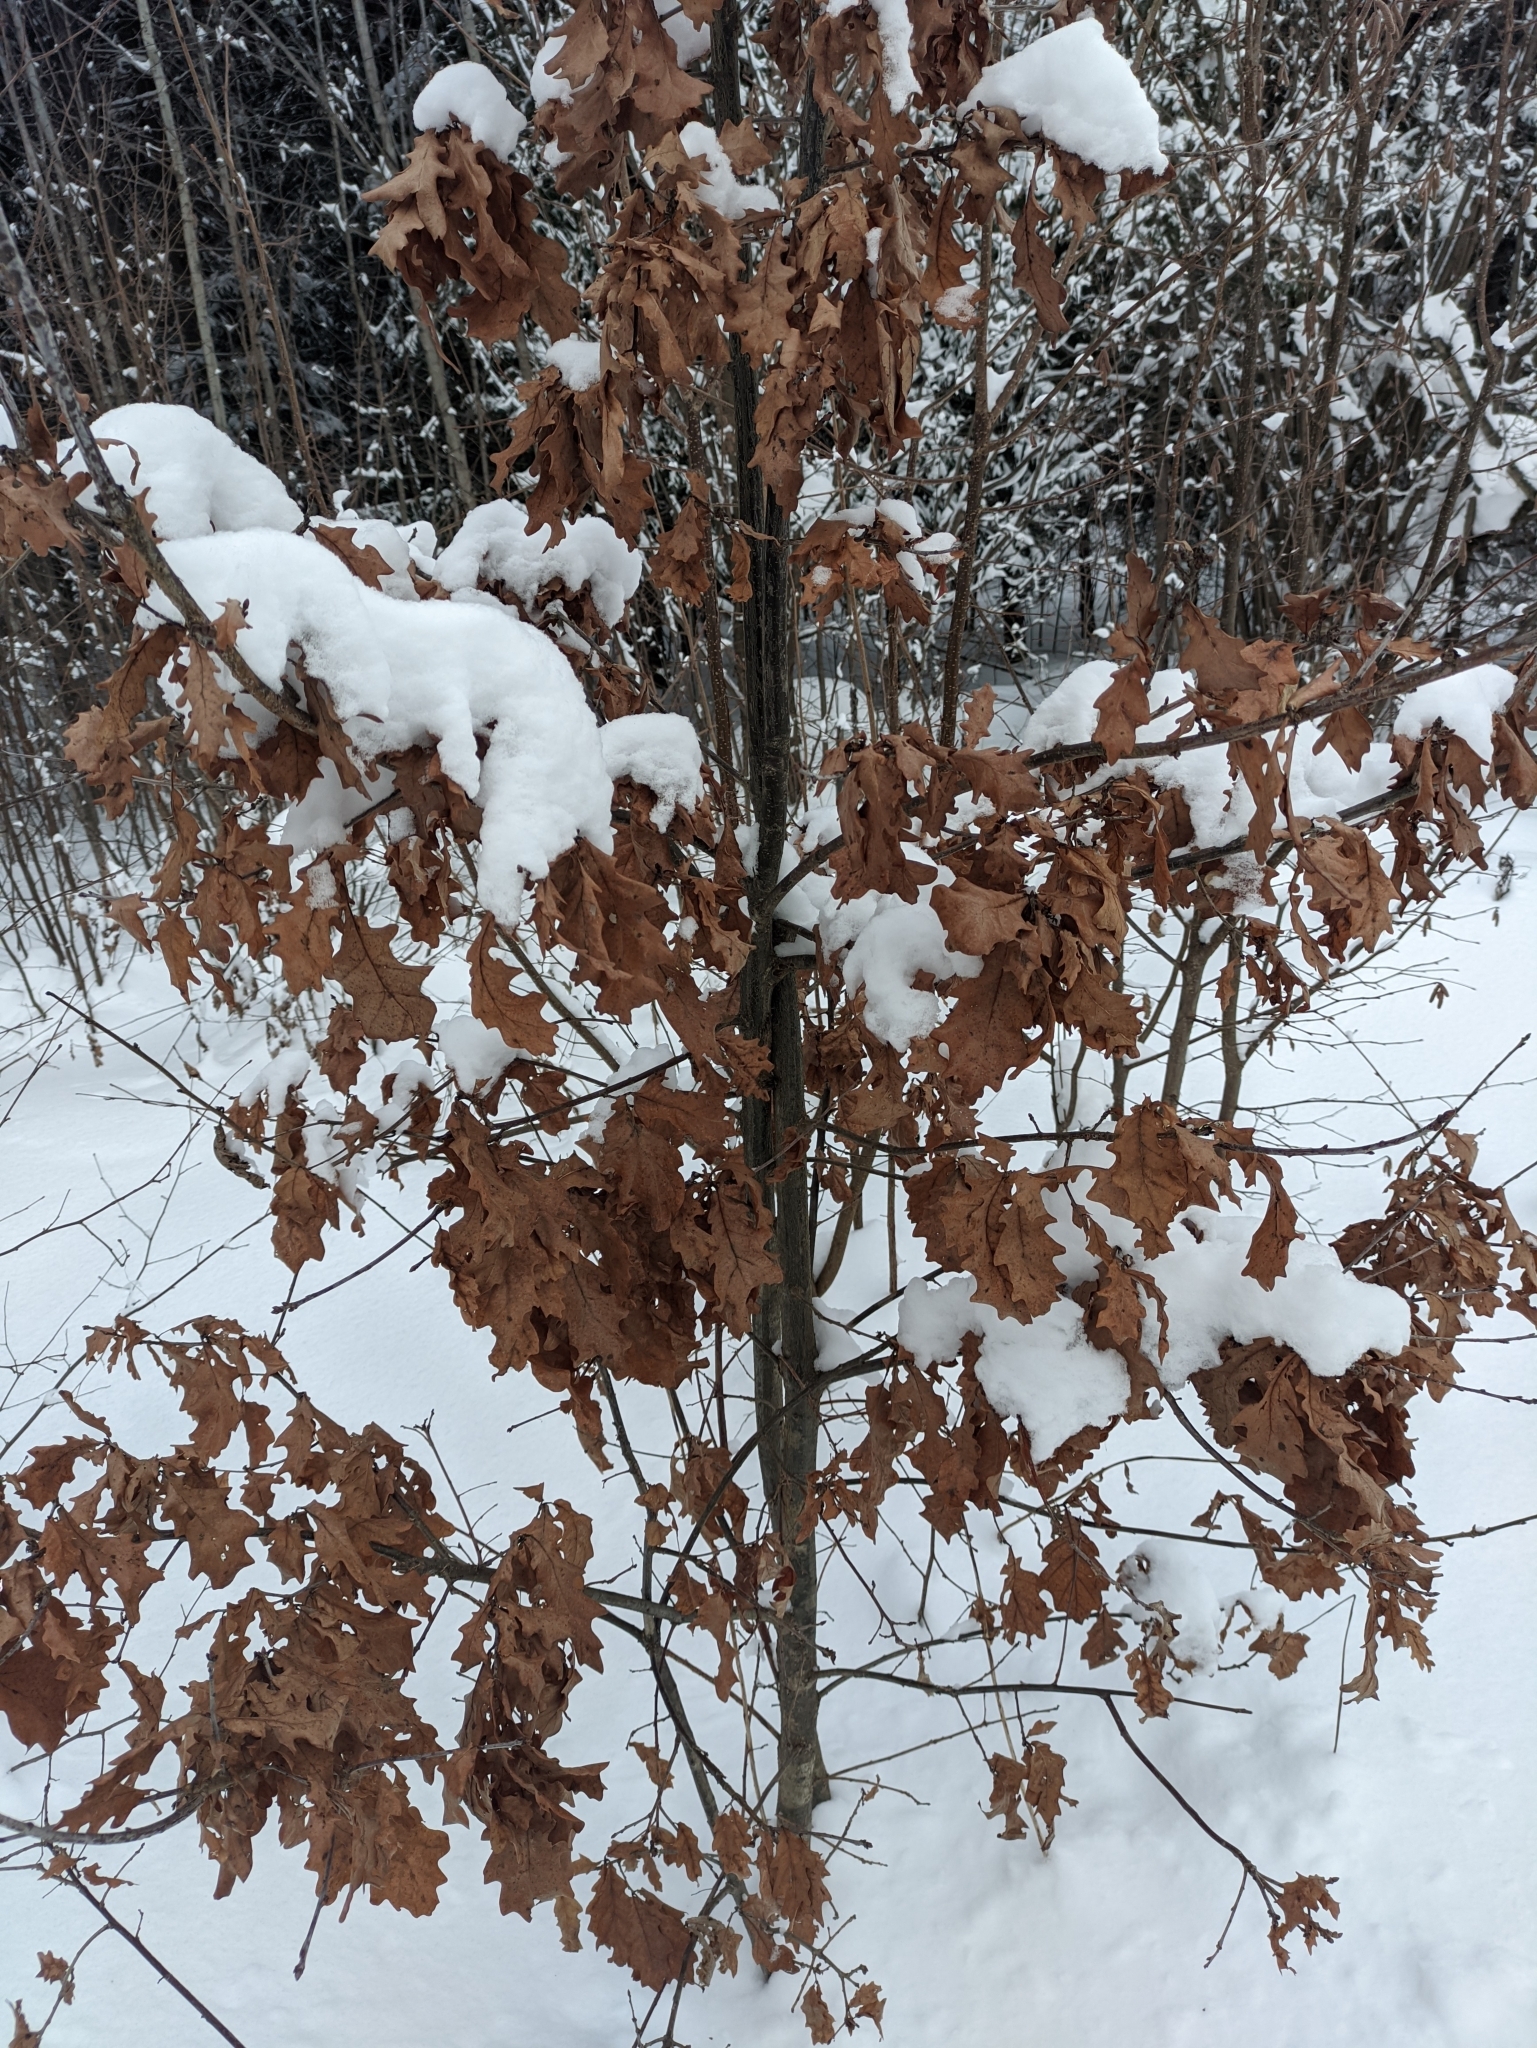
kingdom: Plantae
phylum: Tracheophyta
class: Magnoliopsida
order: Fagales
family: Fagaceae
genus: Quercus
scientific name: Quercus robur
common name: Pedunculate oak
